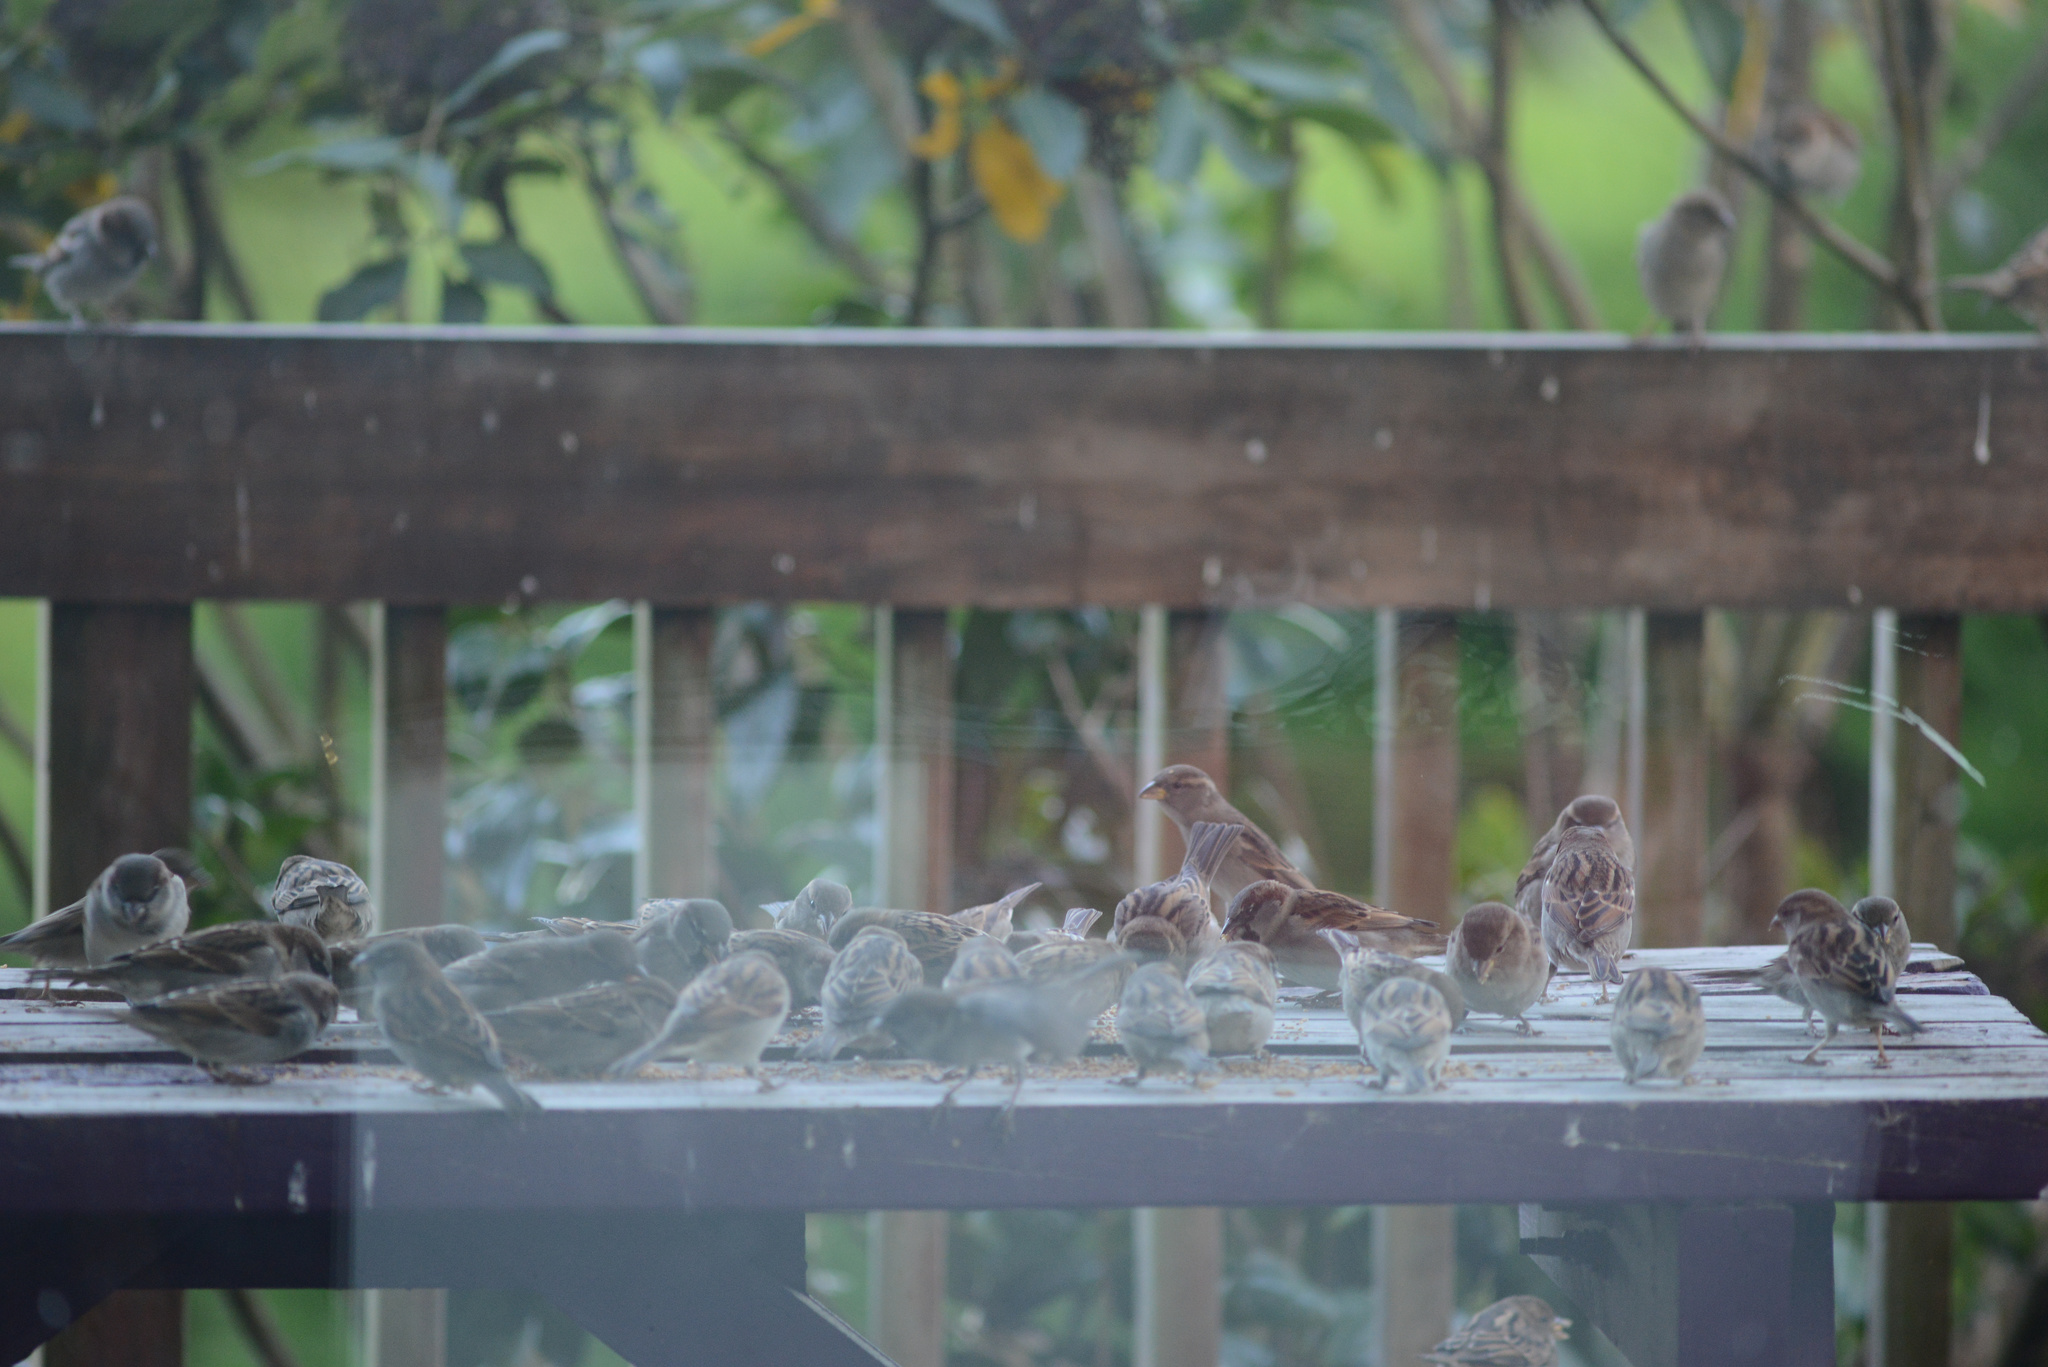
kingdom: Animalia
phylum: Chordata
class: Aves
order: Passeriformes
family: Passeridae
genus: Passer
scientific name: Passer domesticus
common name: House sparrow
